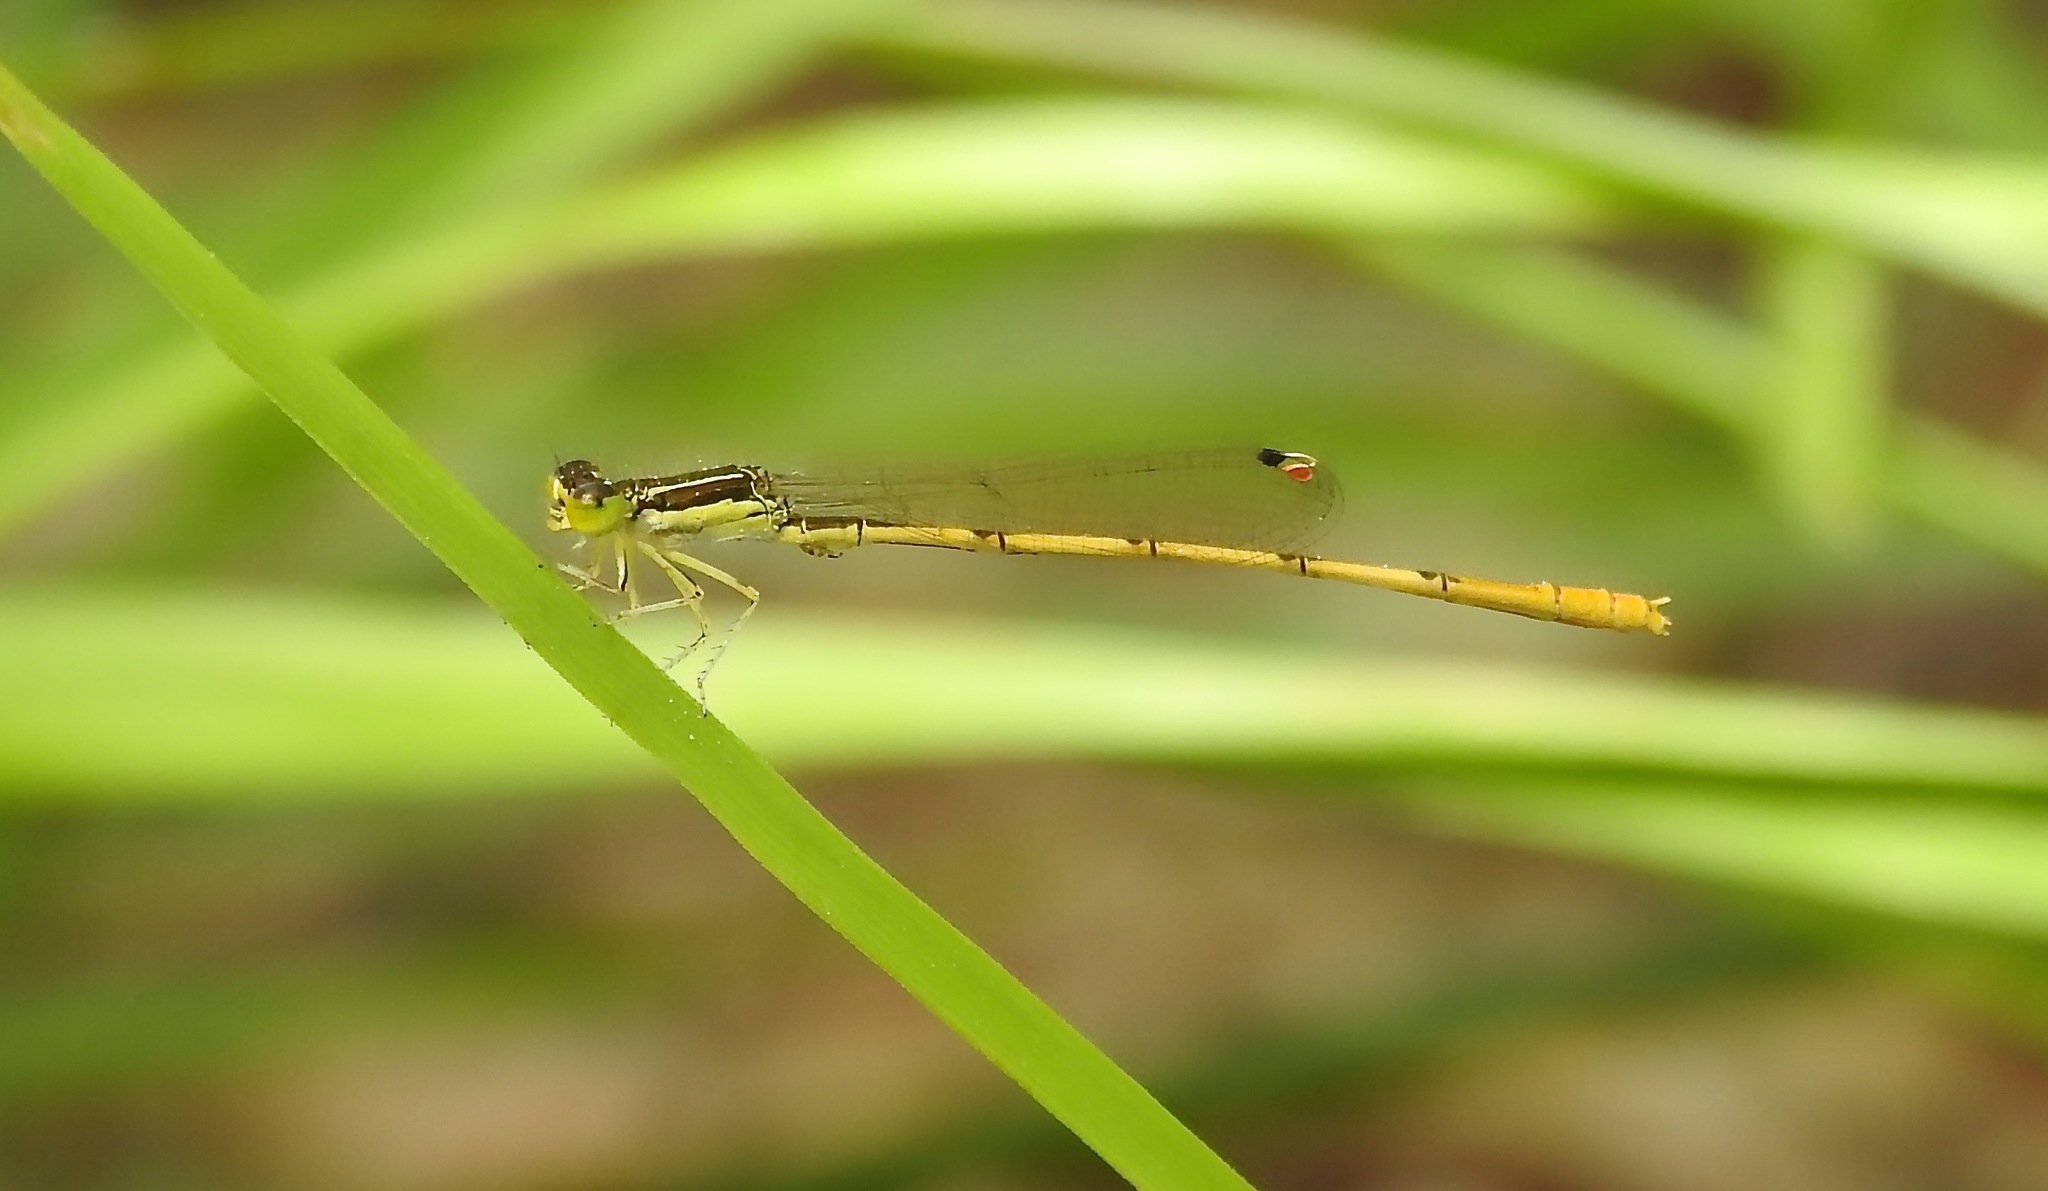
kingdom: Animalia
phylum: Arthropoda
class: Insecta
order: Odonata
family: Coenagrionidae
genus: Ischnura
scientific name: Ischnura hastata
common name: Citrine forktail
